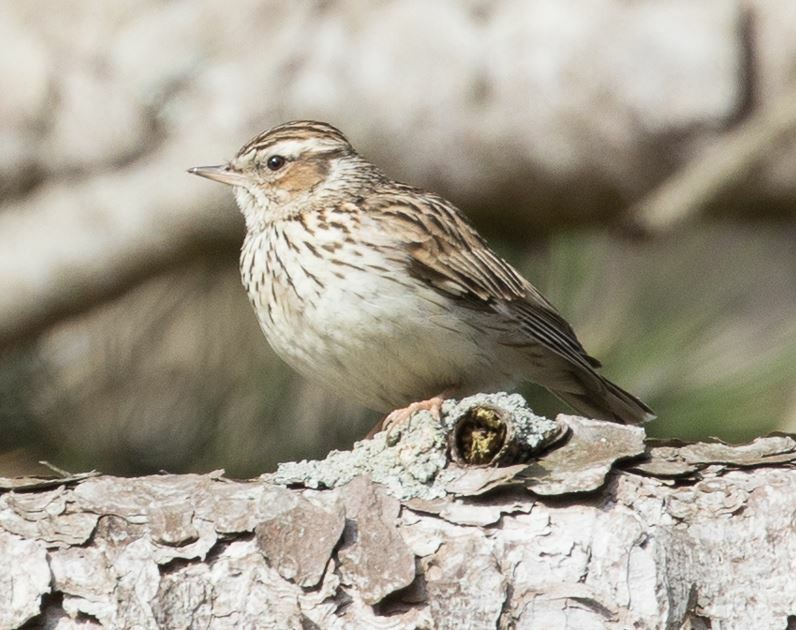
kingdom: Animalia
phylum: Chordata
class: Aves
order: Passeriformes
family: Alaudidae
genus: Lullula
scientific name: Lullula arborea
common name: Woodlark
